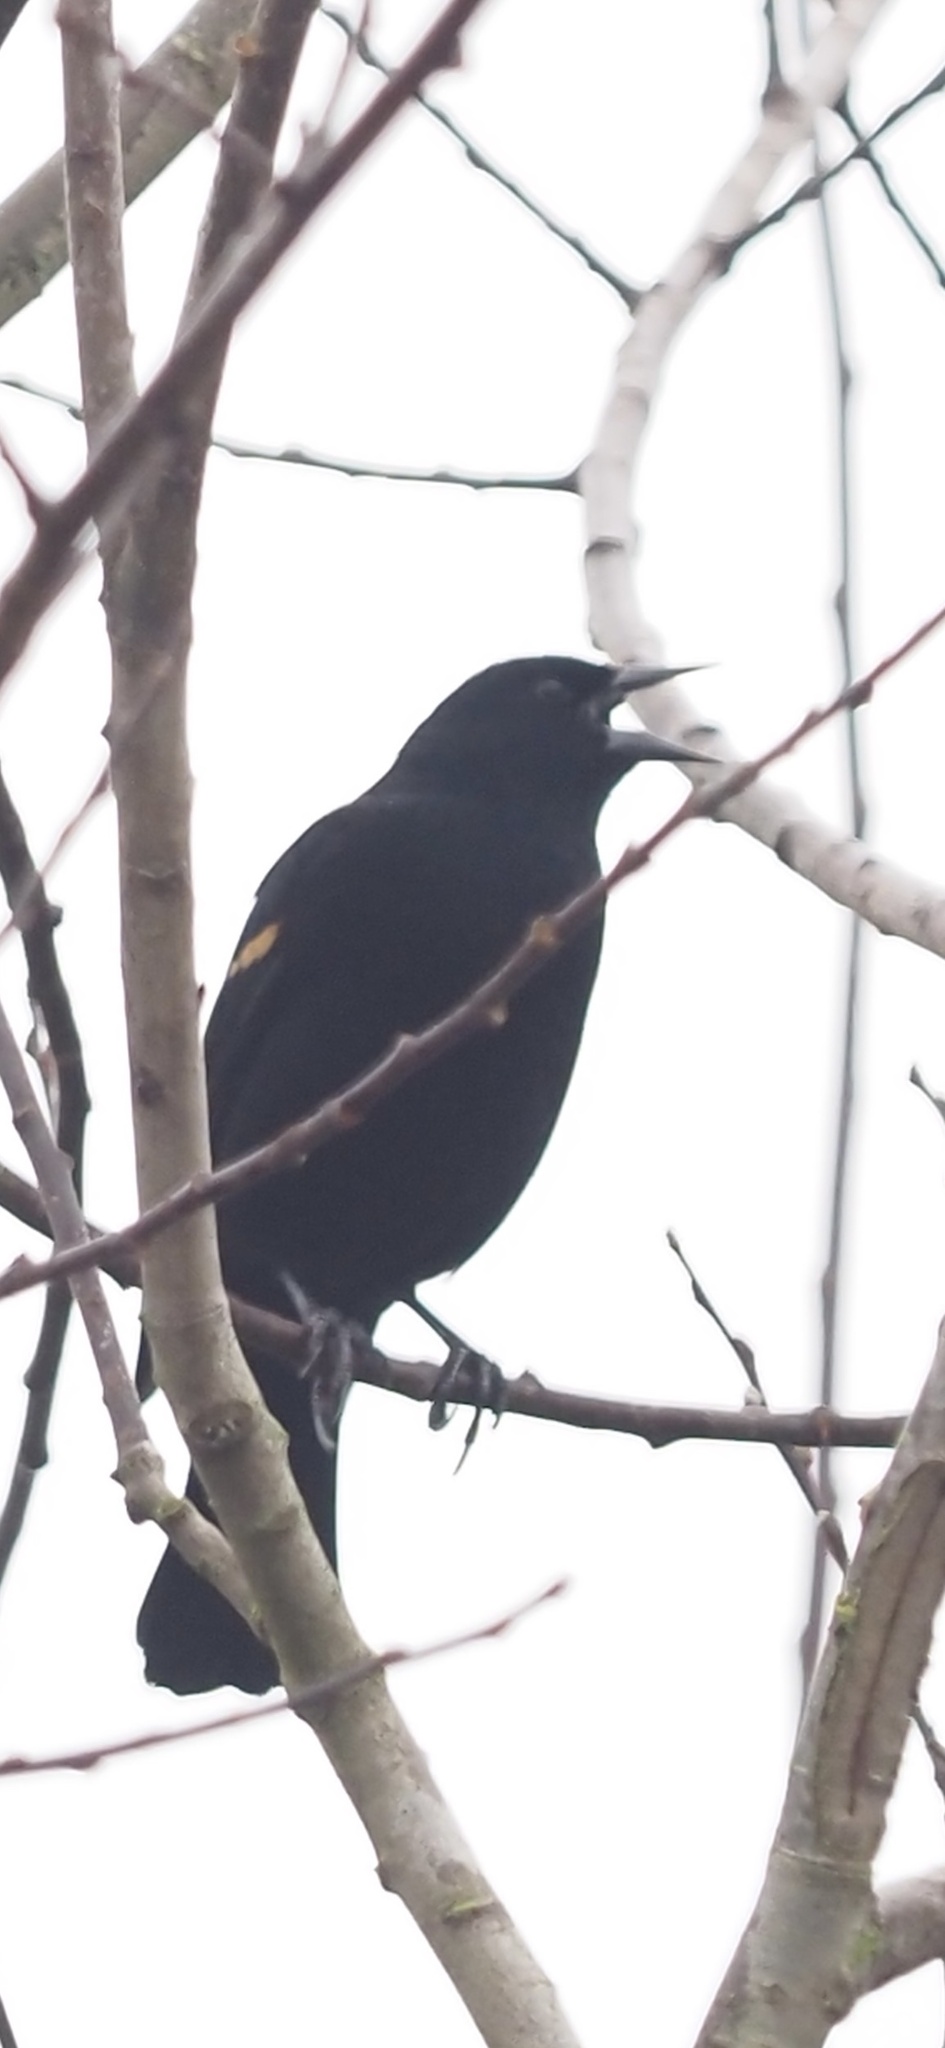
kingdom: Animalia
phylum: Chordata
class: Aves
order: Passeriformes
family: Icteridae
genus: Agelaius
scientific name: Agelaius phoeniceus
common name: Red-winged blackbird
